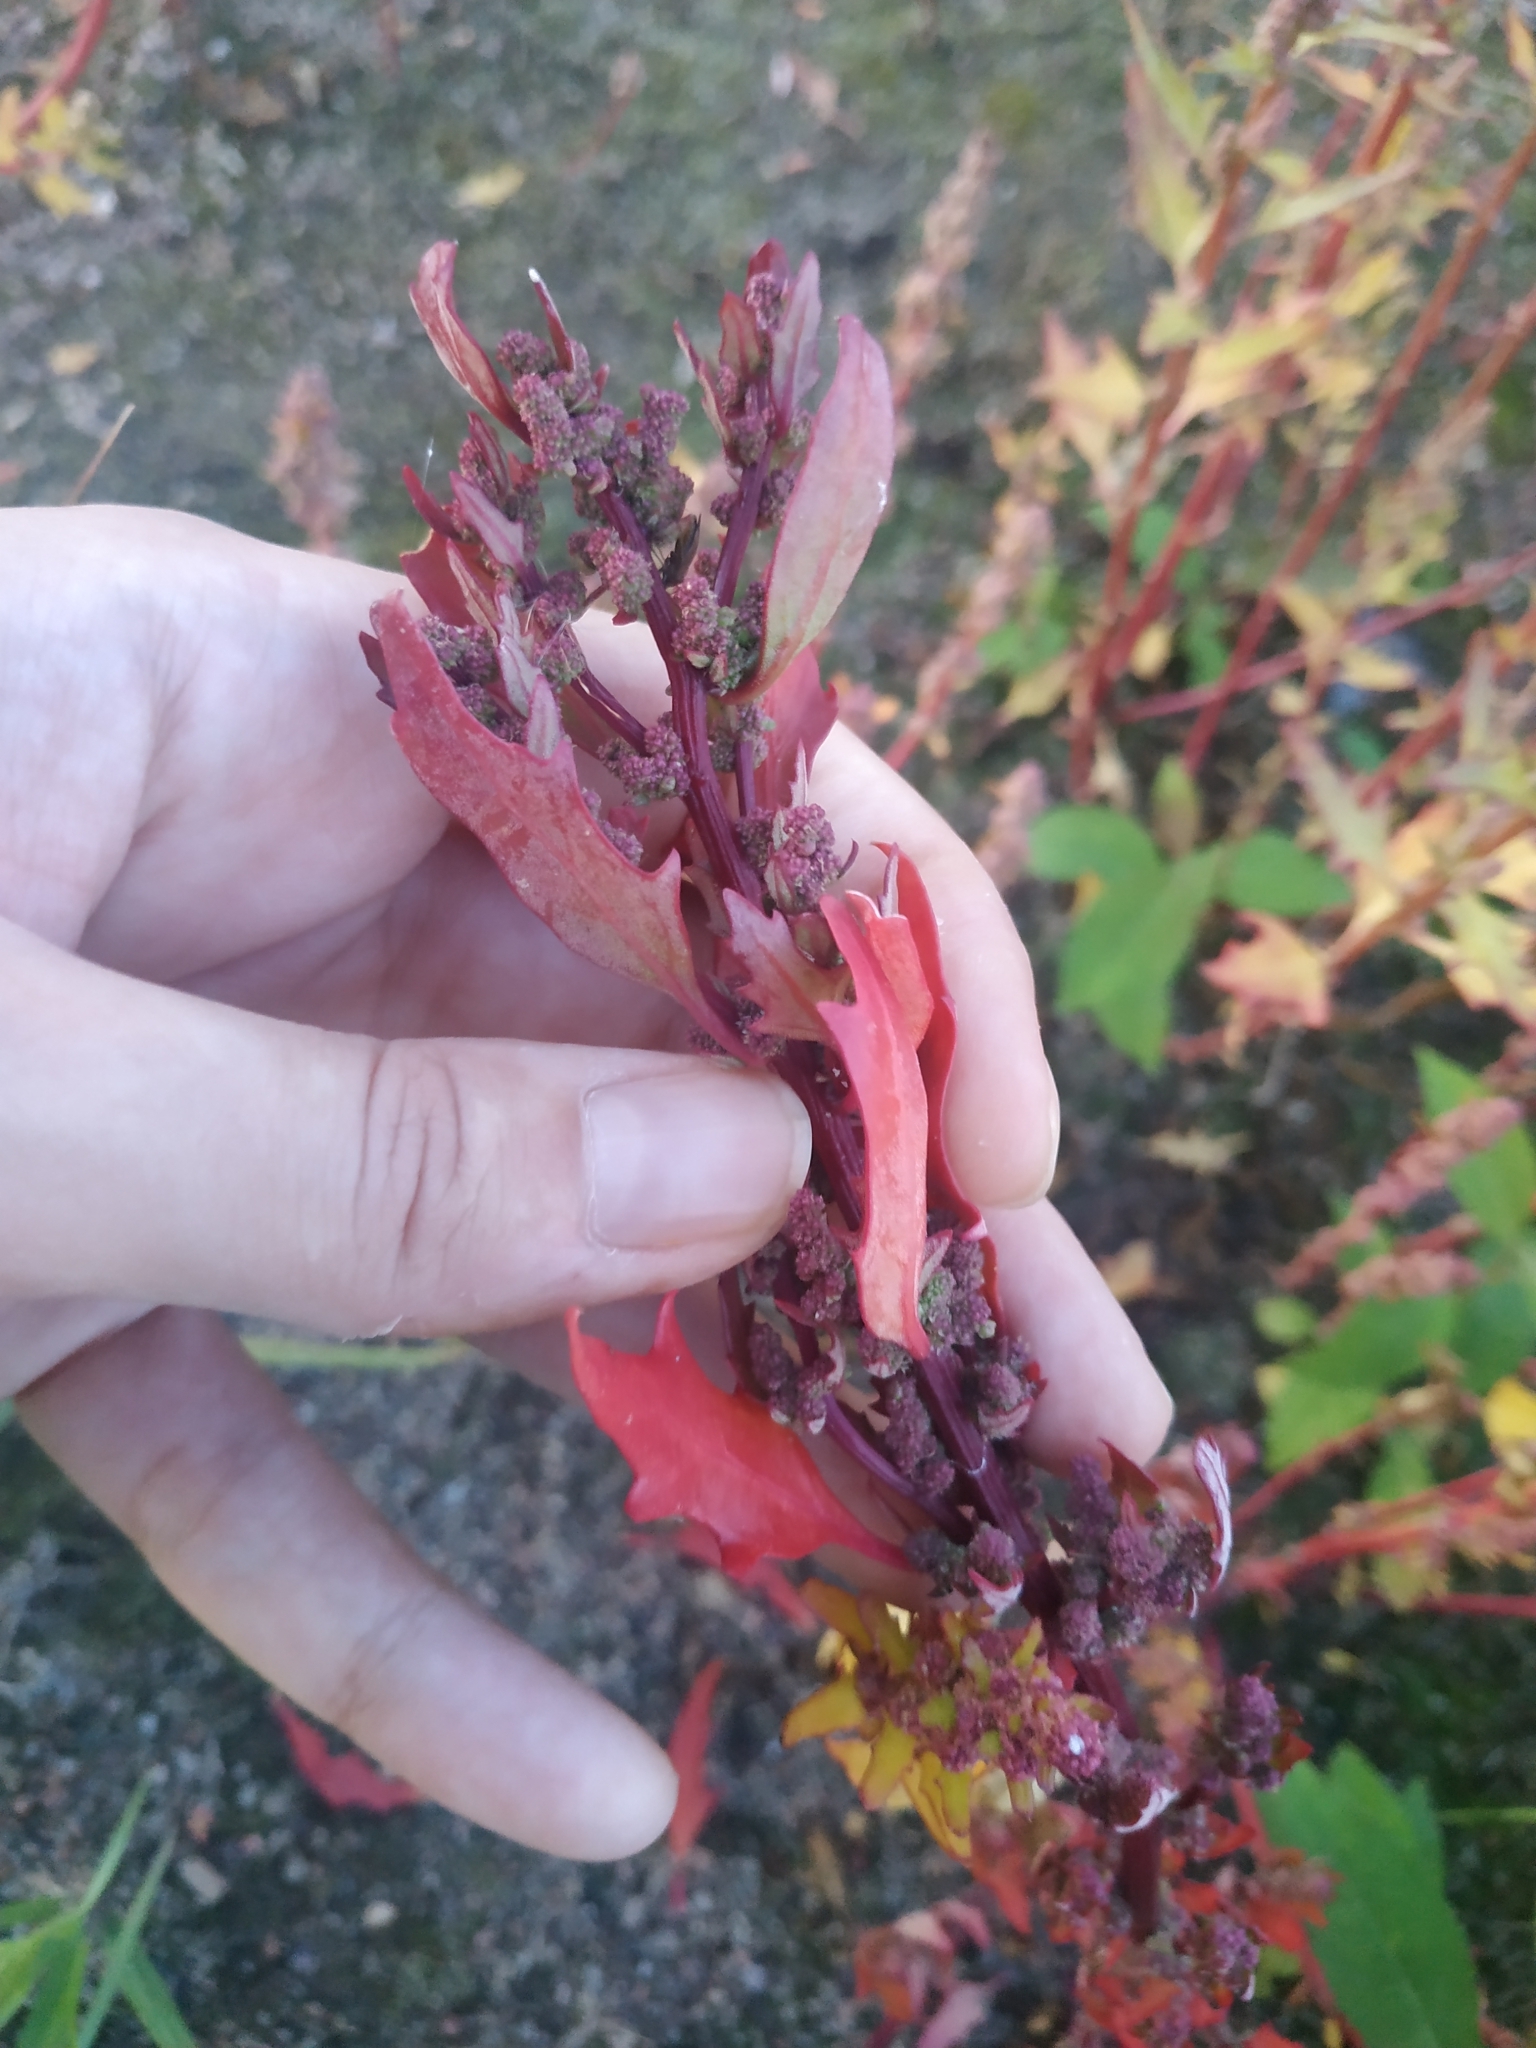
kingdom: Plantae
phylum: Tracheophyta
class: Magnoliopsida
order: Caryophyllales
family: Amaranthaceae
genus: Oxybasis
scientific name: Oxybasis rubra
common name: Red goosefoot
